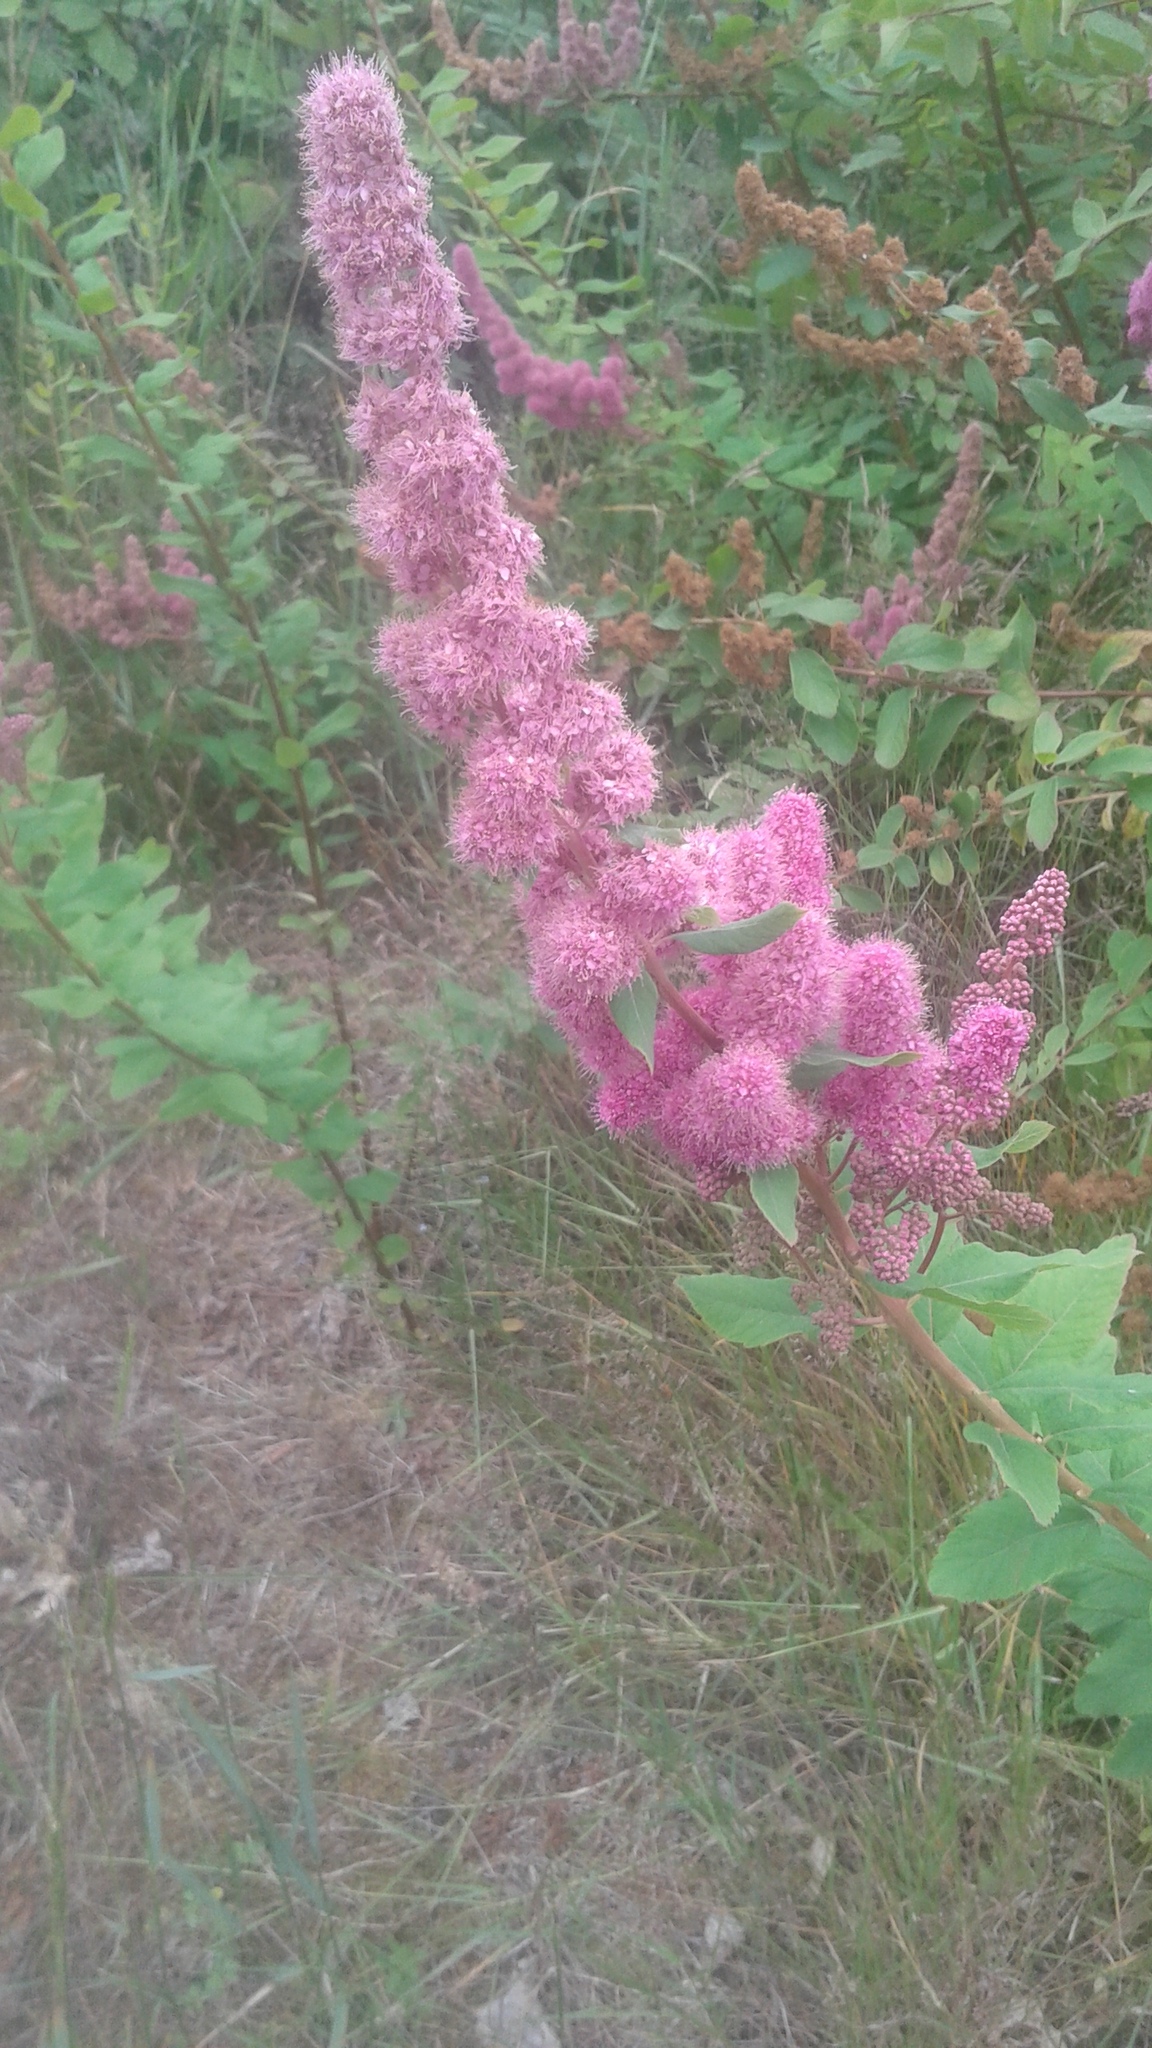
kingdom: Plantae
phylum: Tracheophyta
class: Magnoliopsida
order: Rosales
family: Rosaceae
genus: Spiraea
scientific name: Spiraea douglasii
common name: Steeplebush
